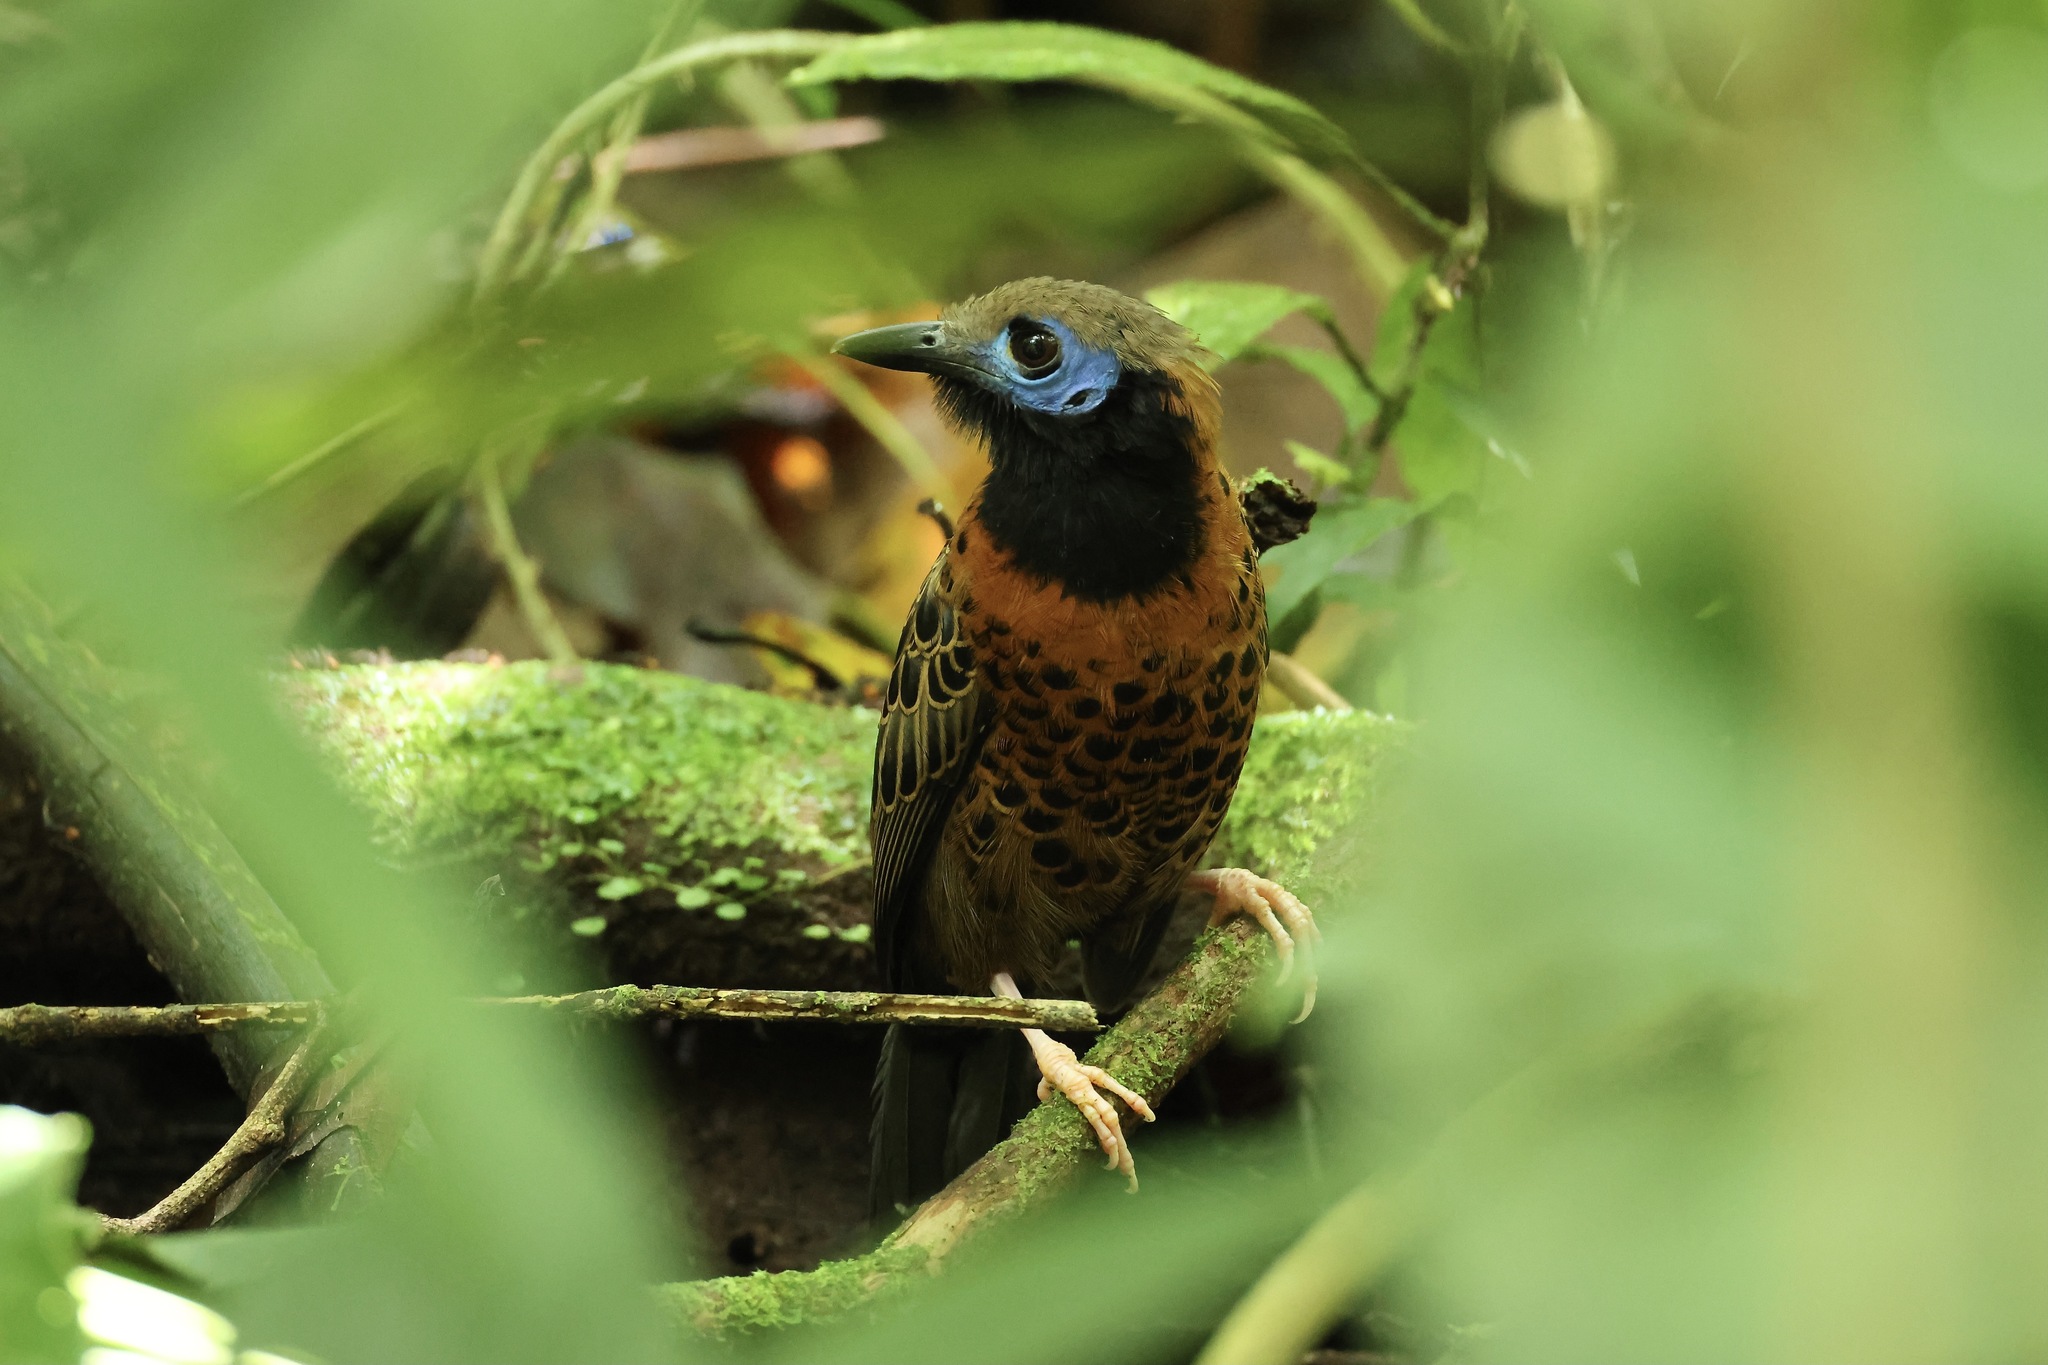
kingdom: Animalia
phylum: Chordata
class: Aves
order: Passeriformes
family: Thamnophilidae
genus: Phaenostictus
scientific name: Phaenostictus mcleannani
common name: Ocellated antbird
